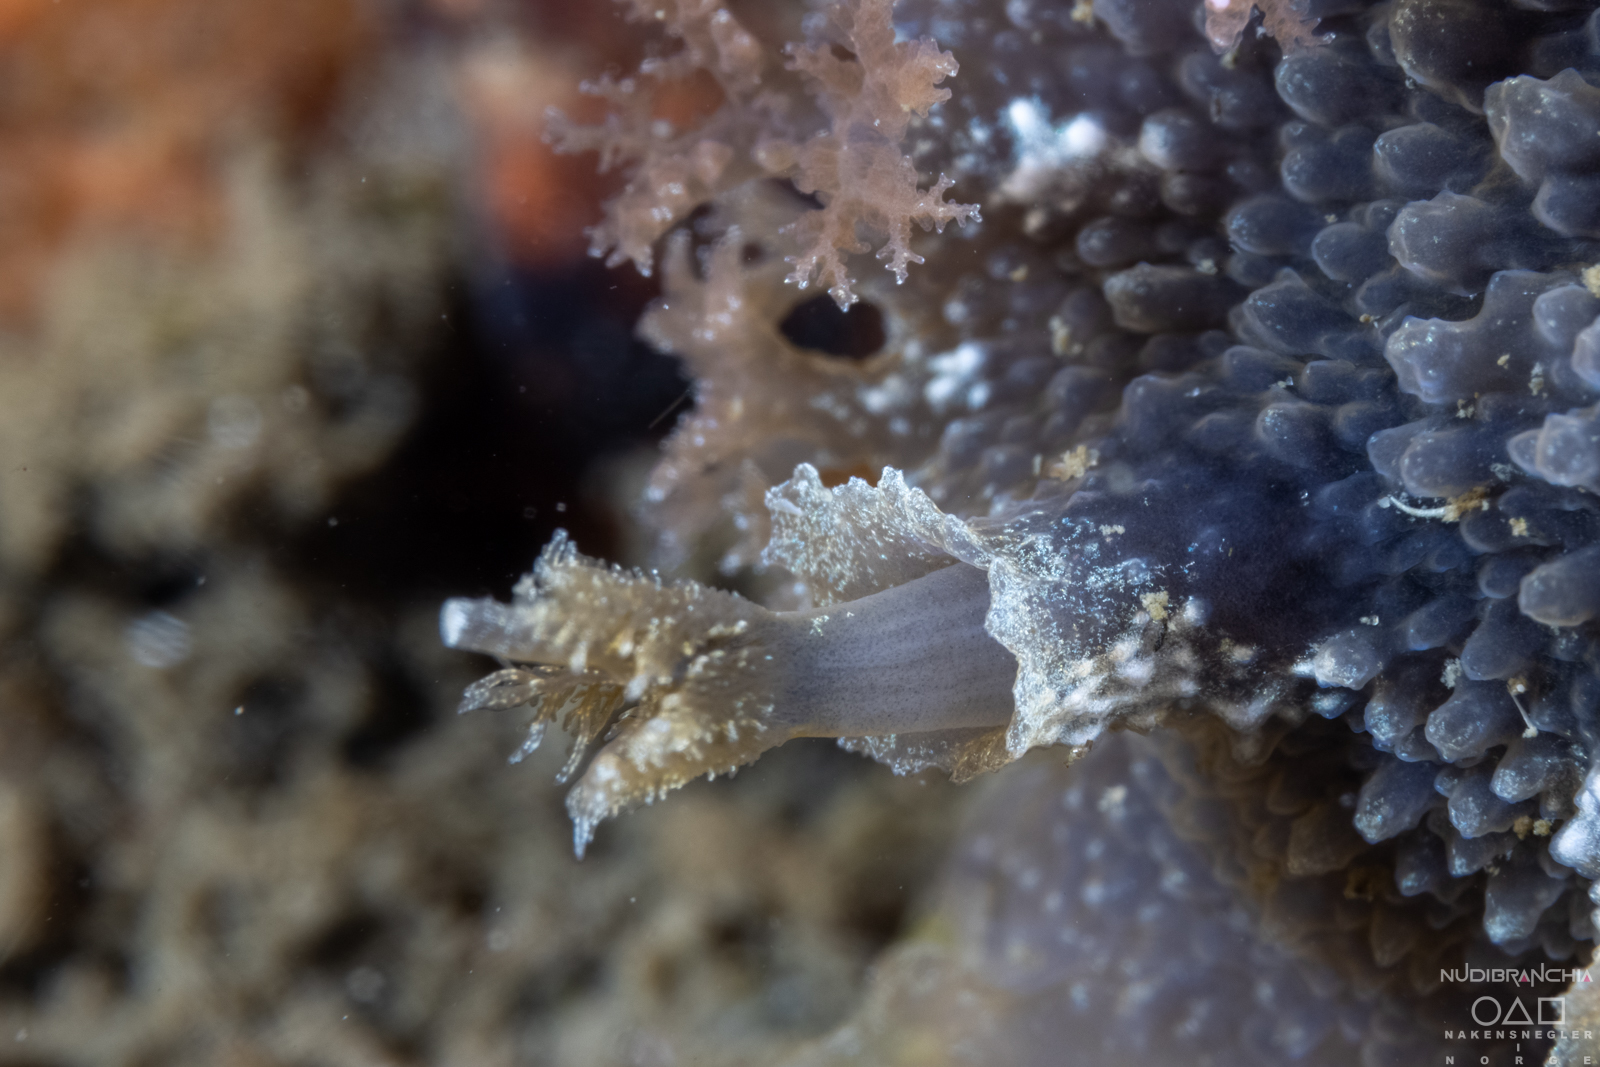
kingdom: Animalia
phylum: Mollusca
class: Gastropoda
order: Nudibranchia
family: Tritoniidae
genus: Tritonia
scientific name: Tritonia hombergii
